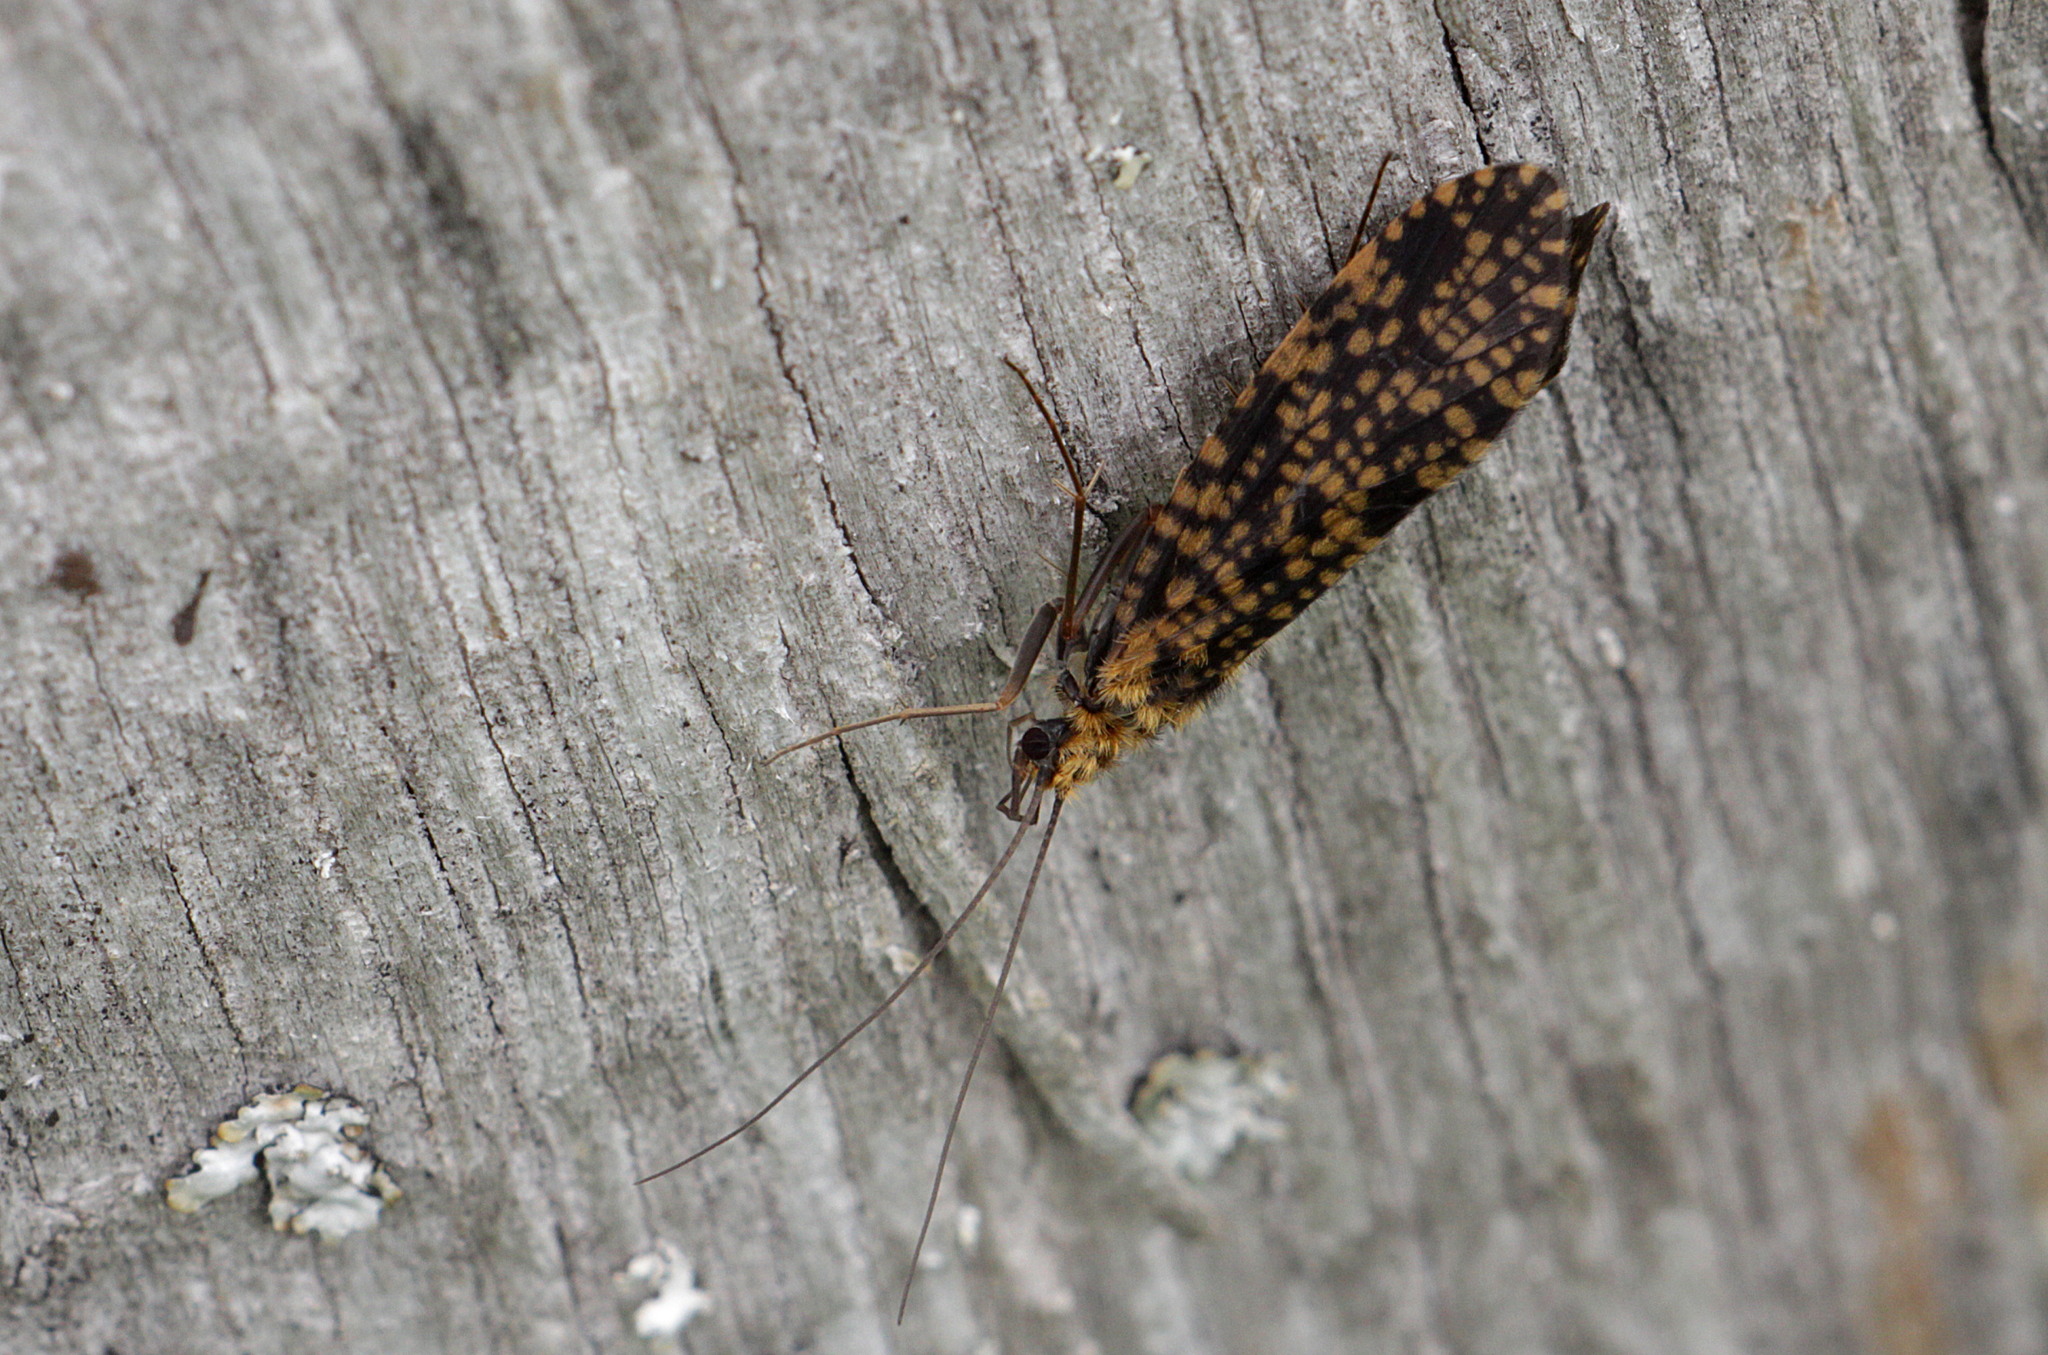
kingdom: Animalia
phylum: Arthropoda
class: Insecta
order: Trichoptera
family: Philopotamidae
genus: Philopotamus
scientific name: Philopotamus
